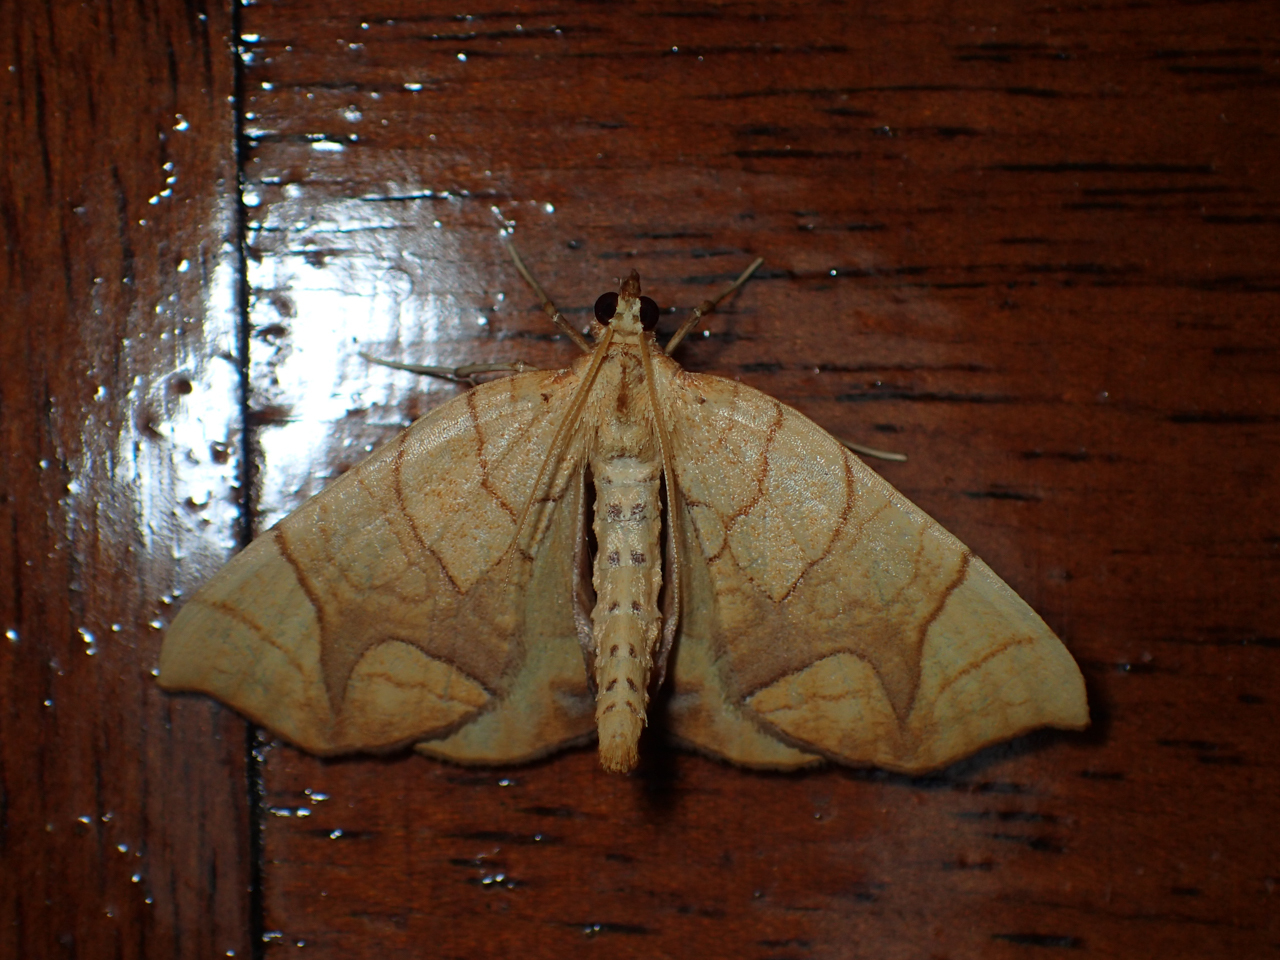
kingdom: Animalia
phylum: Arthropoda
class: Insecta
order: Lepidoptera
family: Geometridae
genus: Eulithis
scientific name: Eulithis
